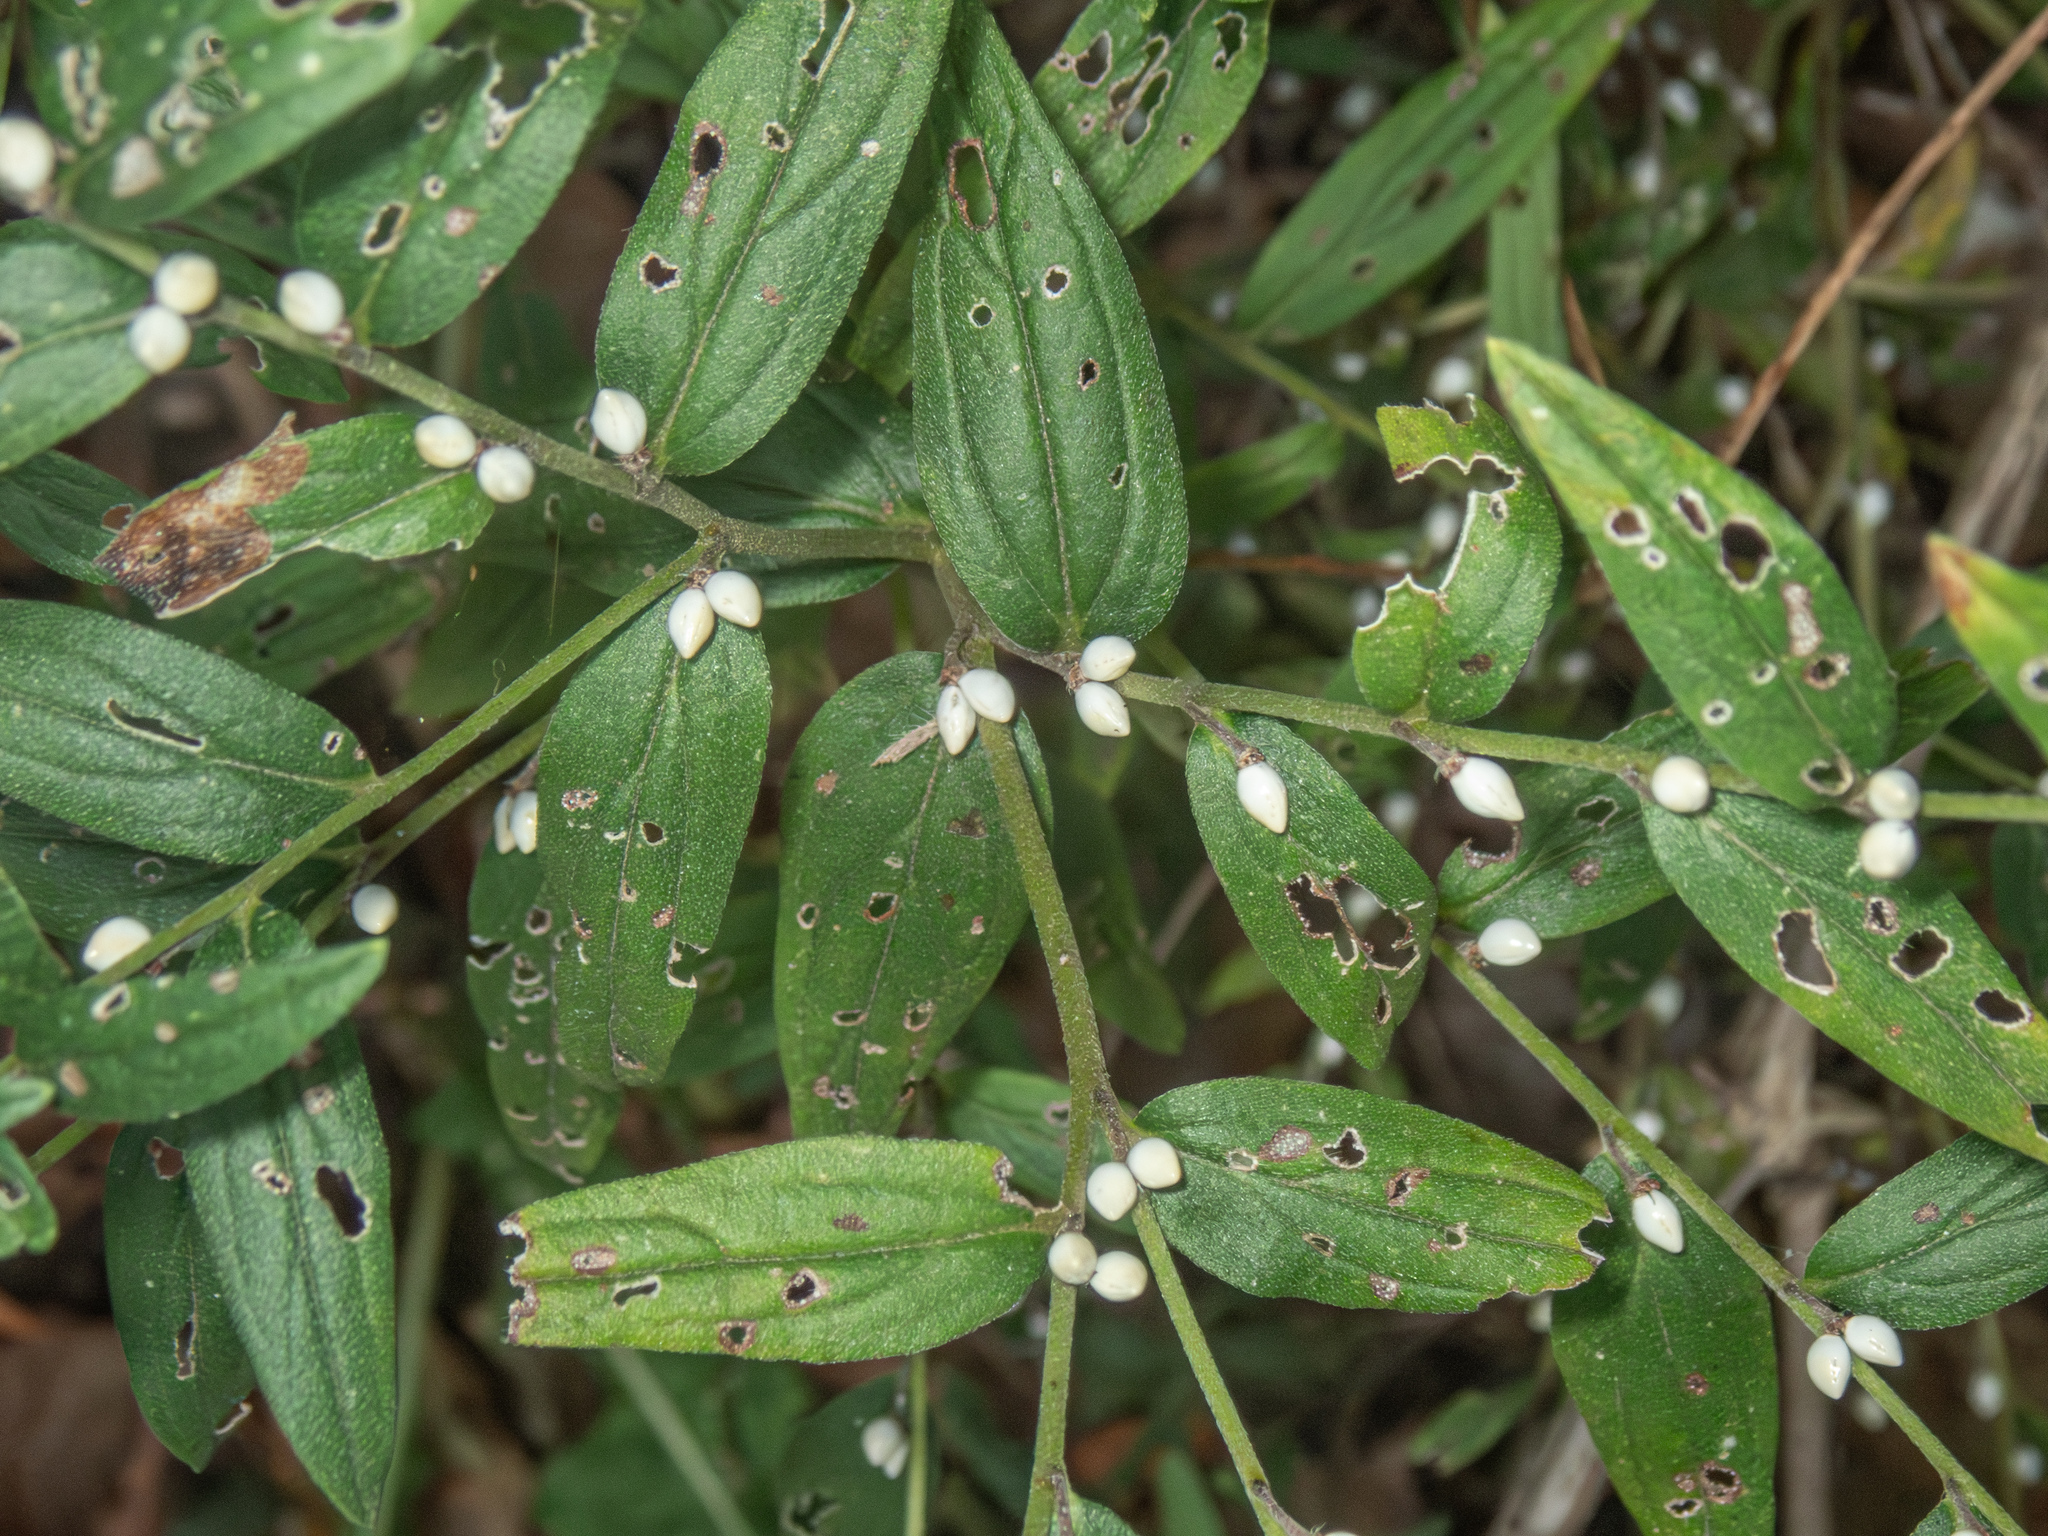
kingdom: Plantae
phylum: Tracheophyta
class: Magnoliopsida
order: Boraginales
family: Boraginaceae
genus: Lithospermum
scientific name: Lithospermum officinale
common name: Common gromwell
